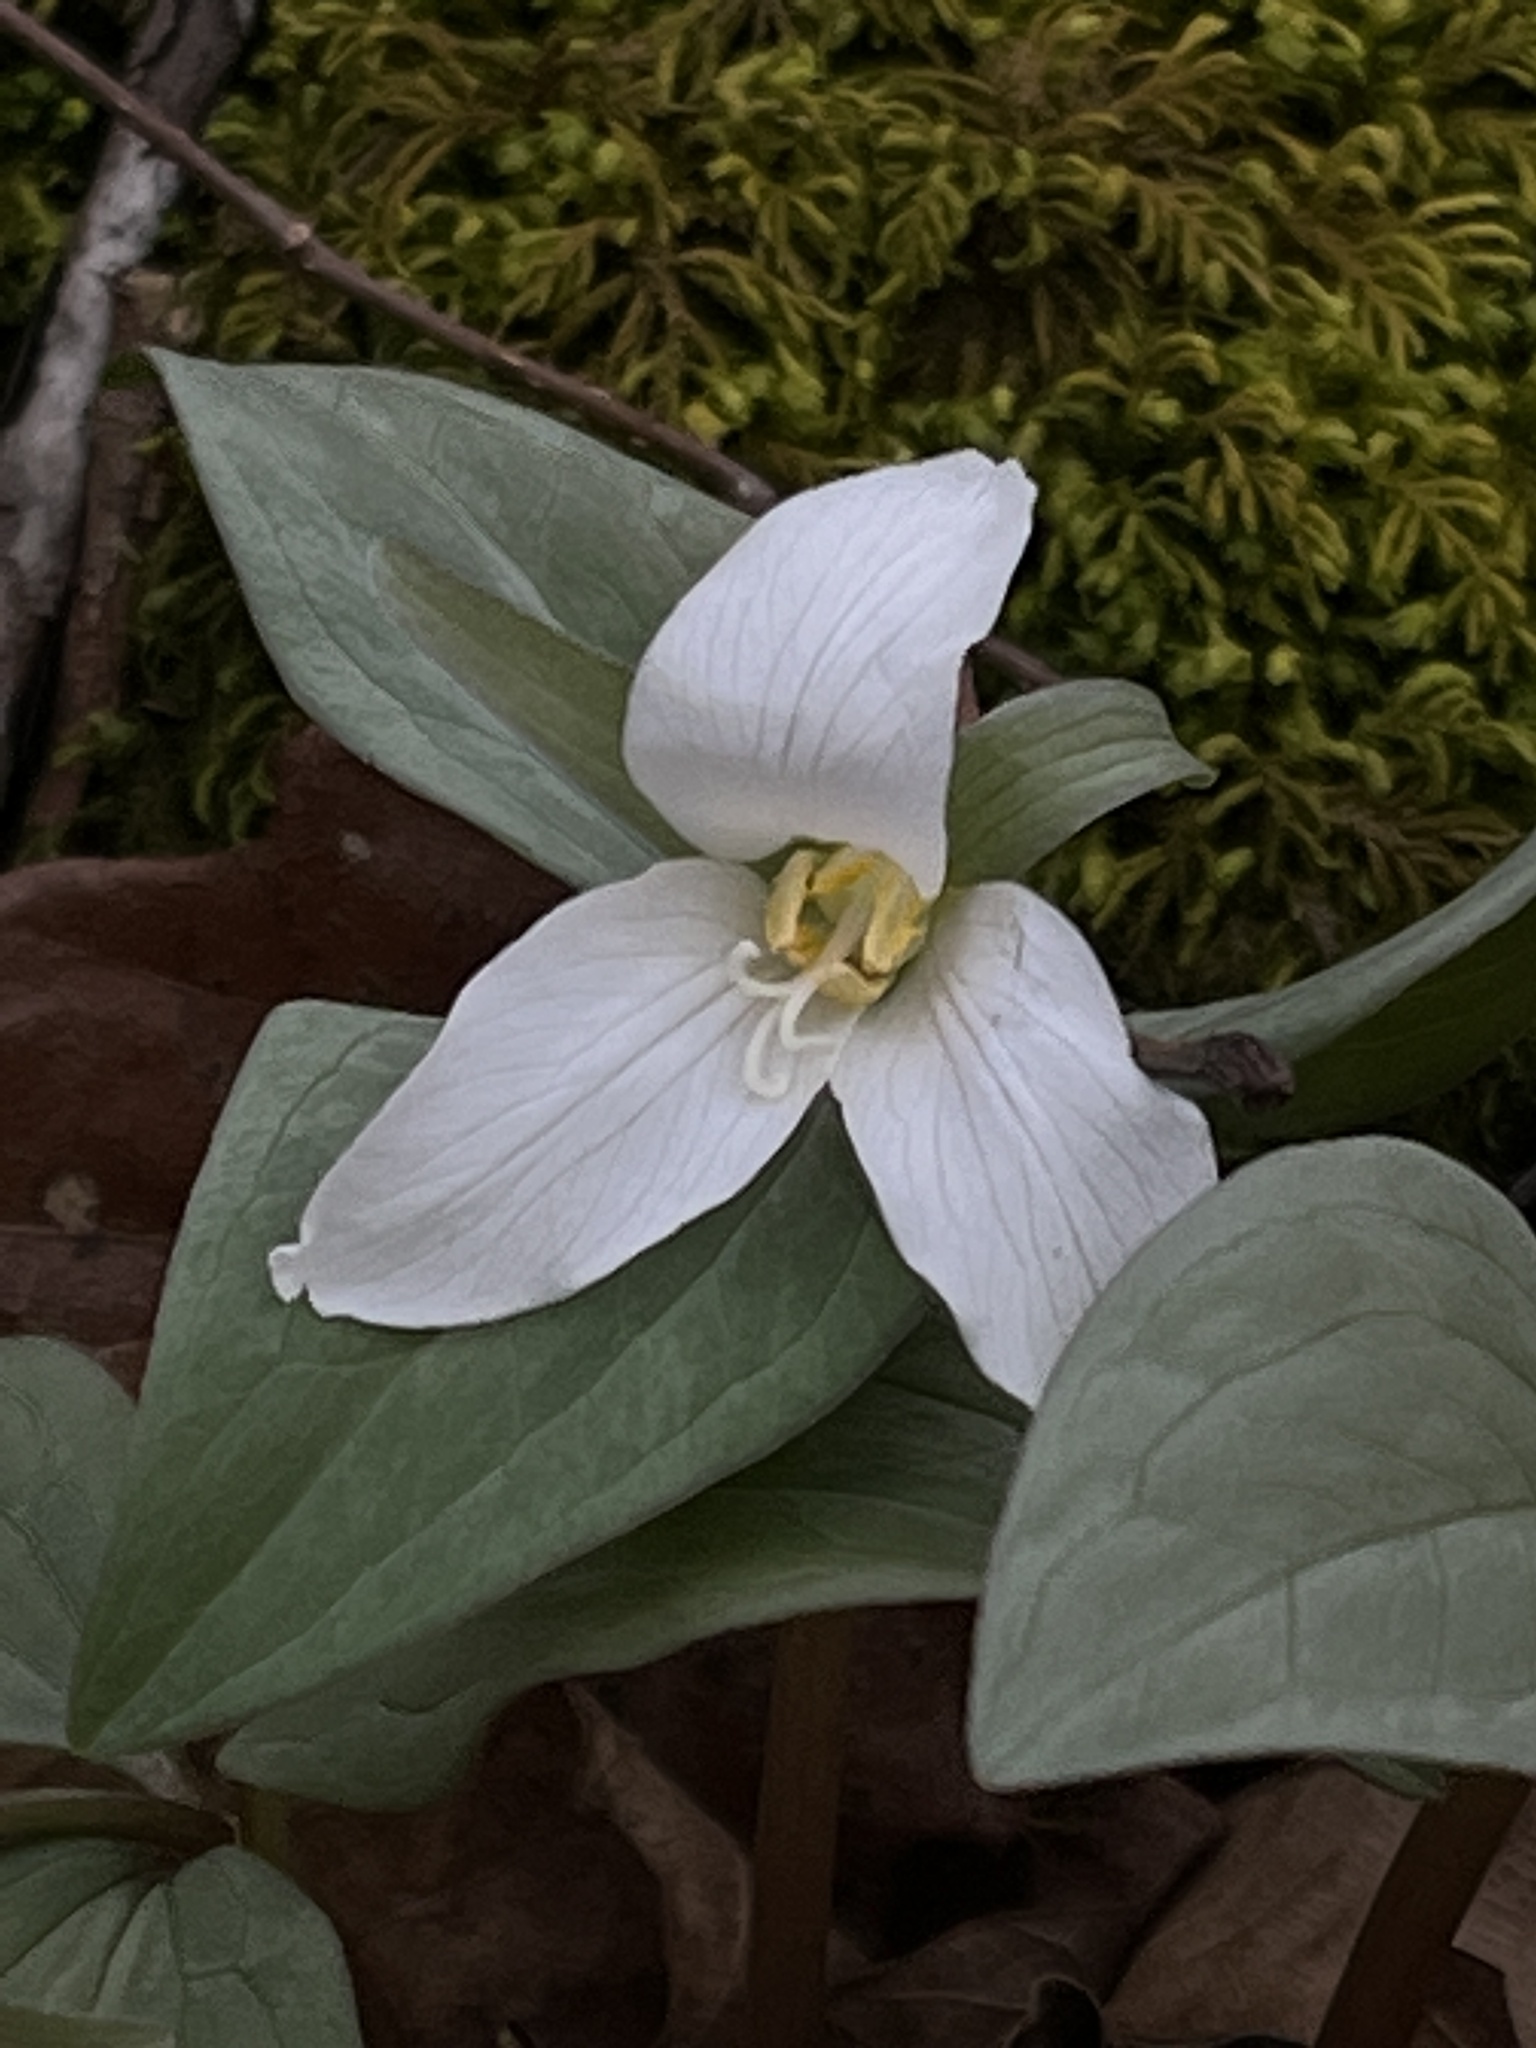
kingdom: Plantae
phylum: Tracheophyta
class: Liliopsida
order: Liliales
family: Melanthiaceae
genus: Trillium
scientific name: Trillium nivale
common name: Dwarf white trillium
